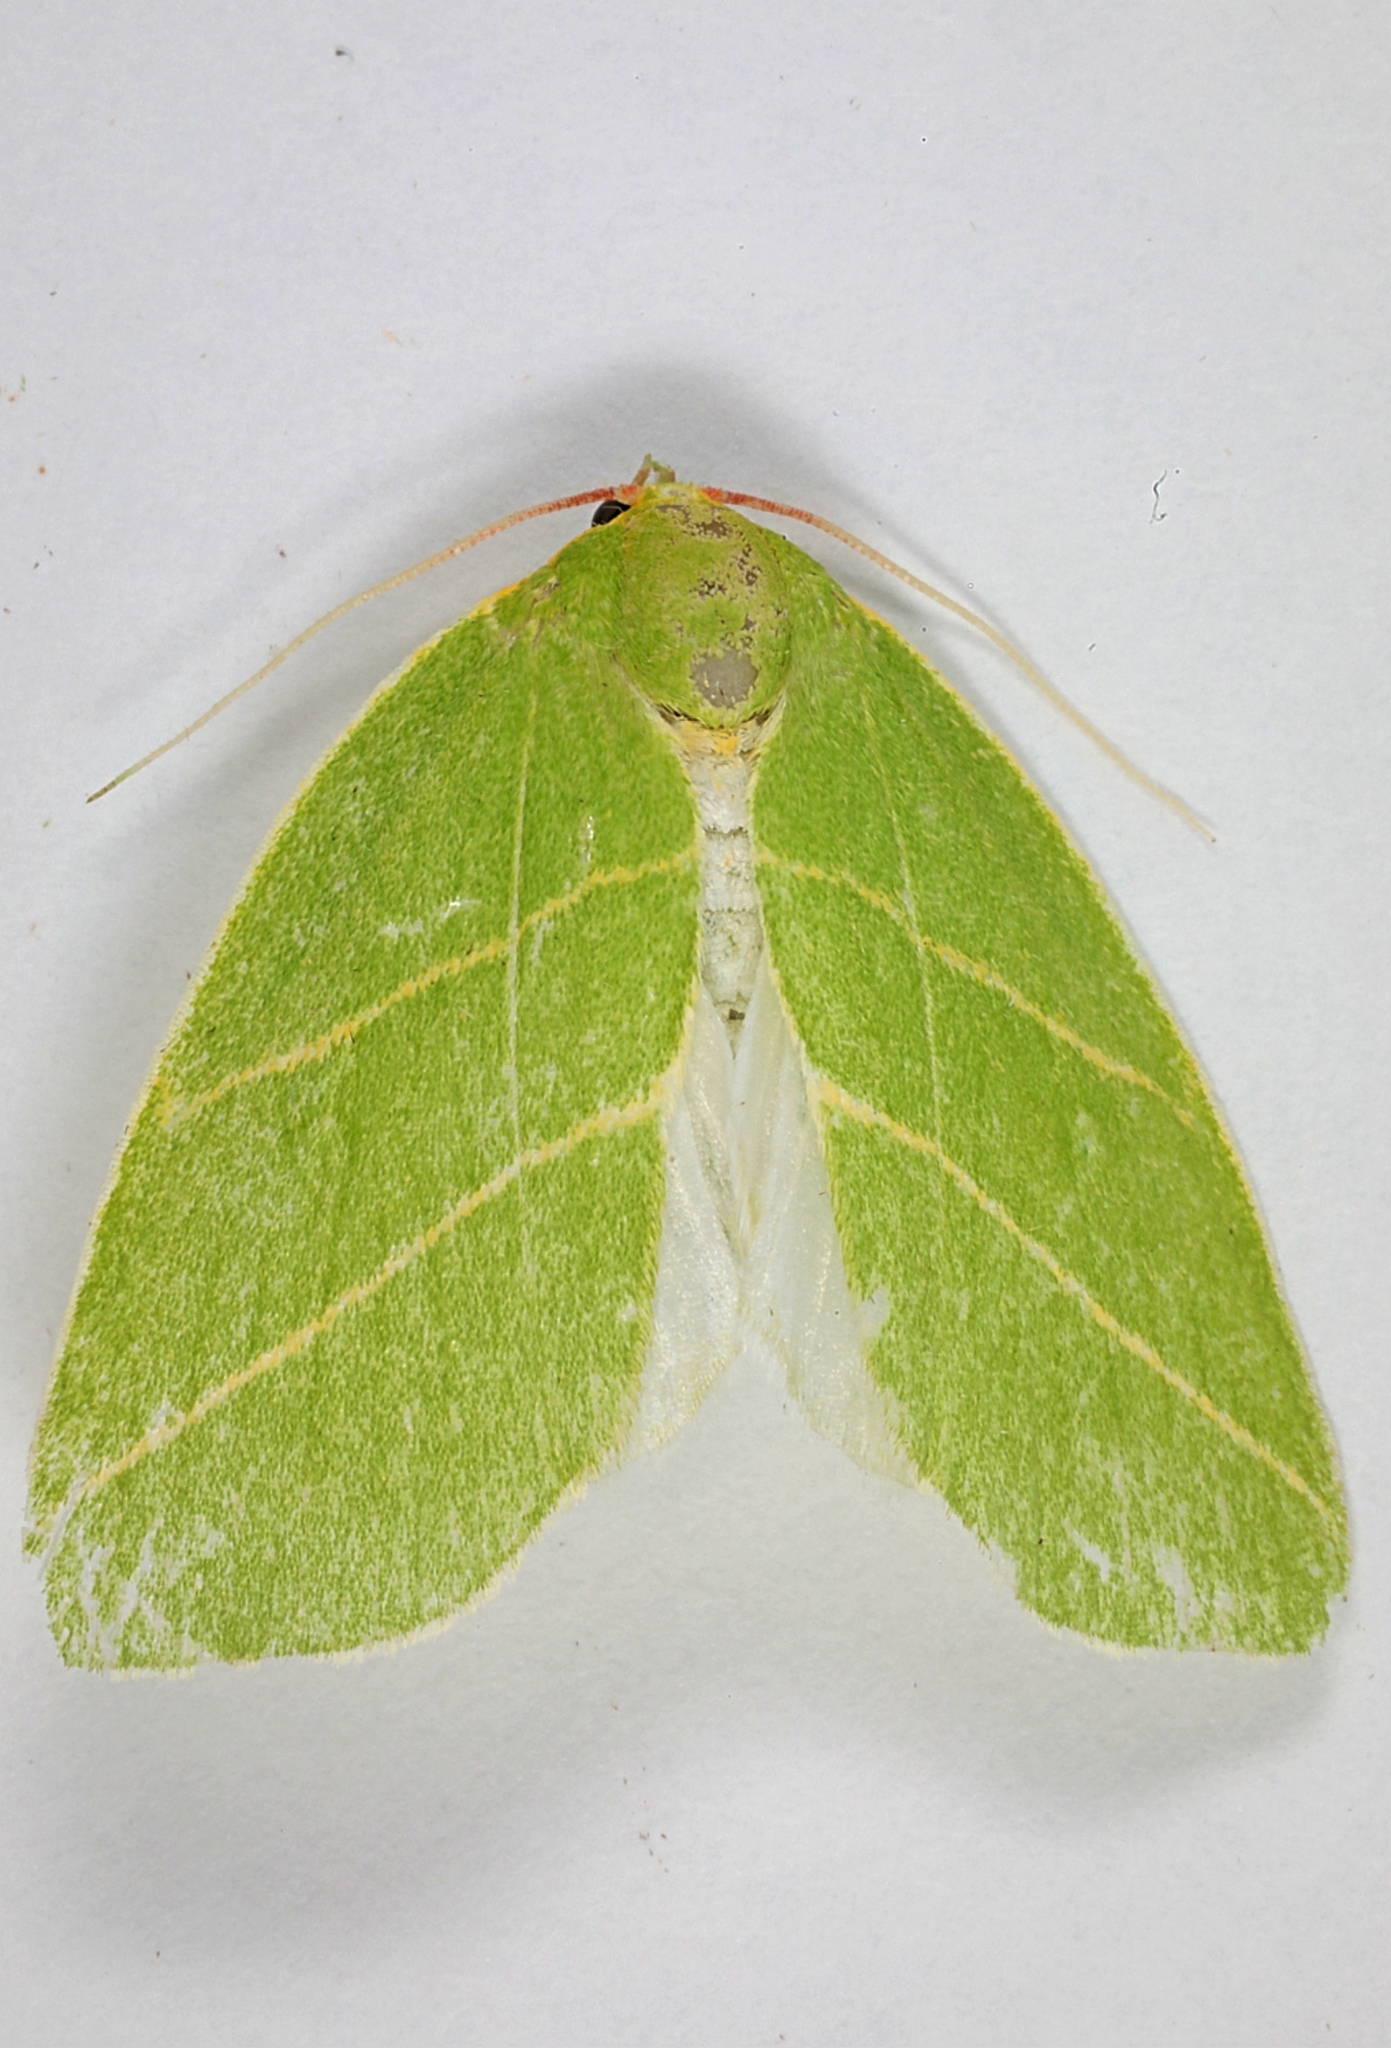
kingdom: Animalia
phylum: Arthropoda
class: Insecta
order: Lepidoptera
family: Nolidae
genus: Bena
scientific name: Bena bicolorana
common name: Scarce silver-lines
